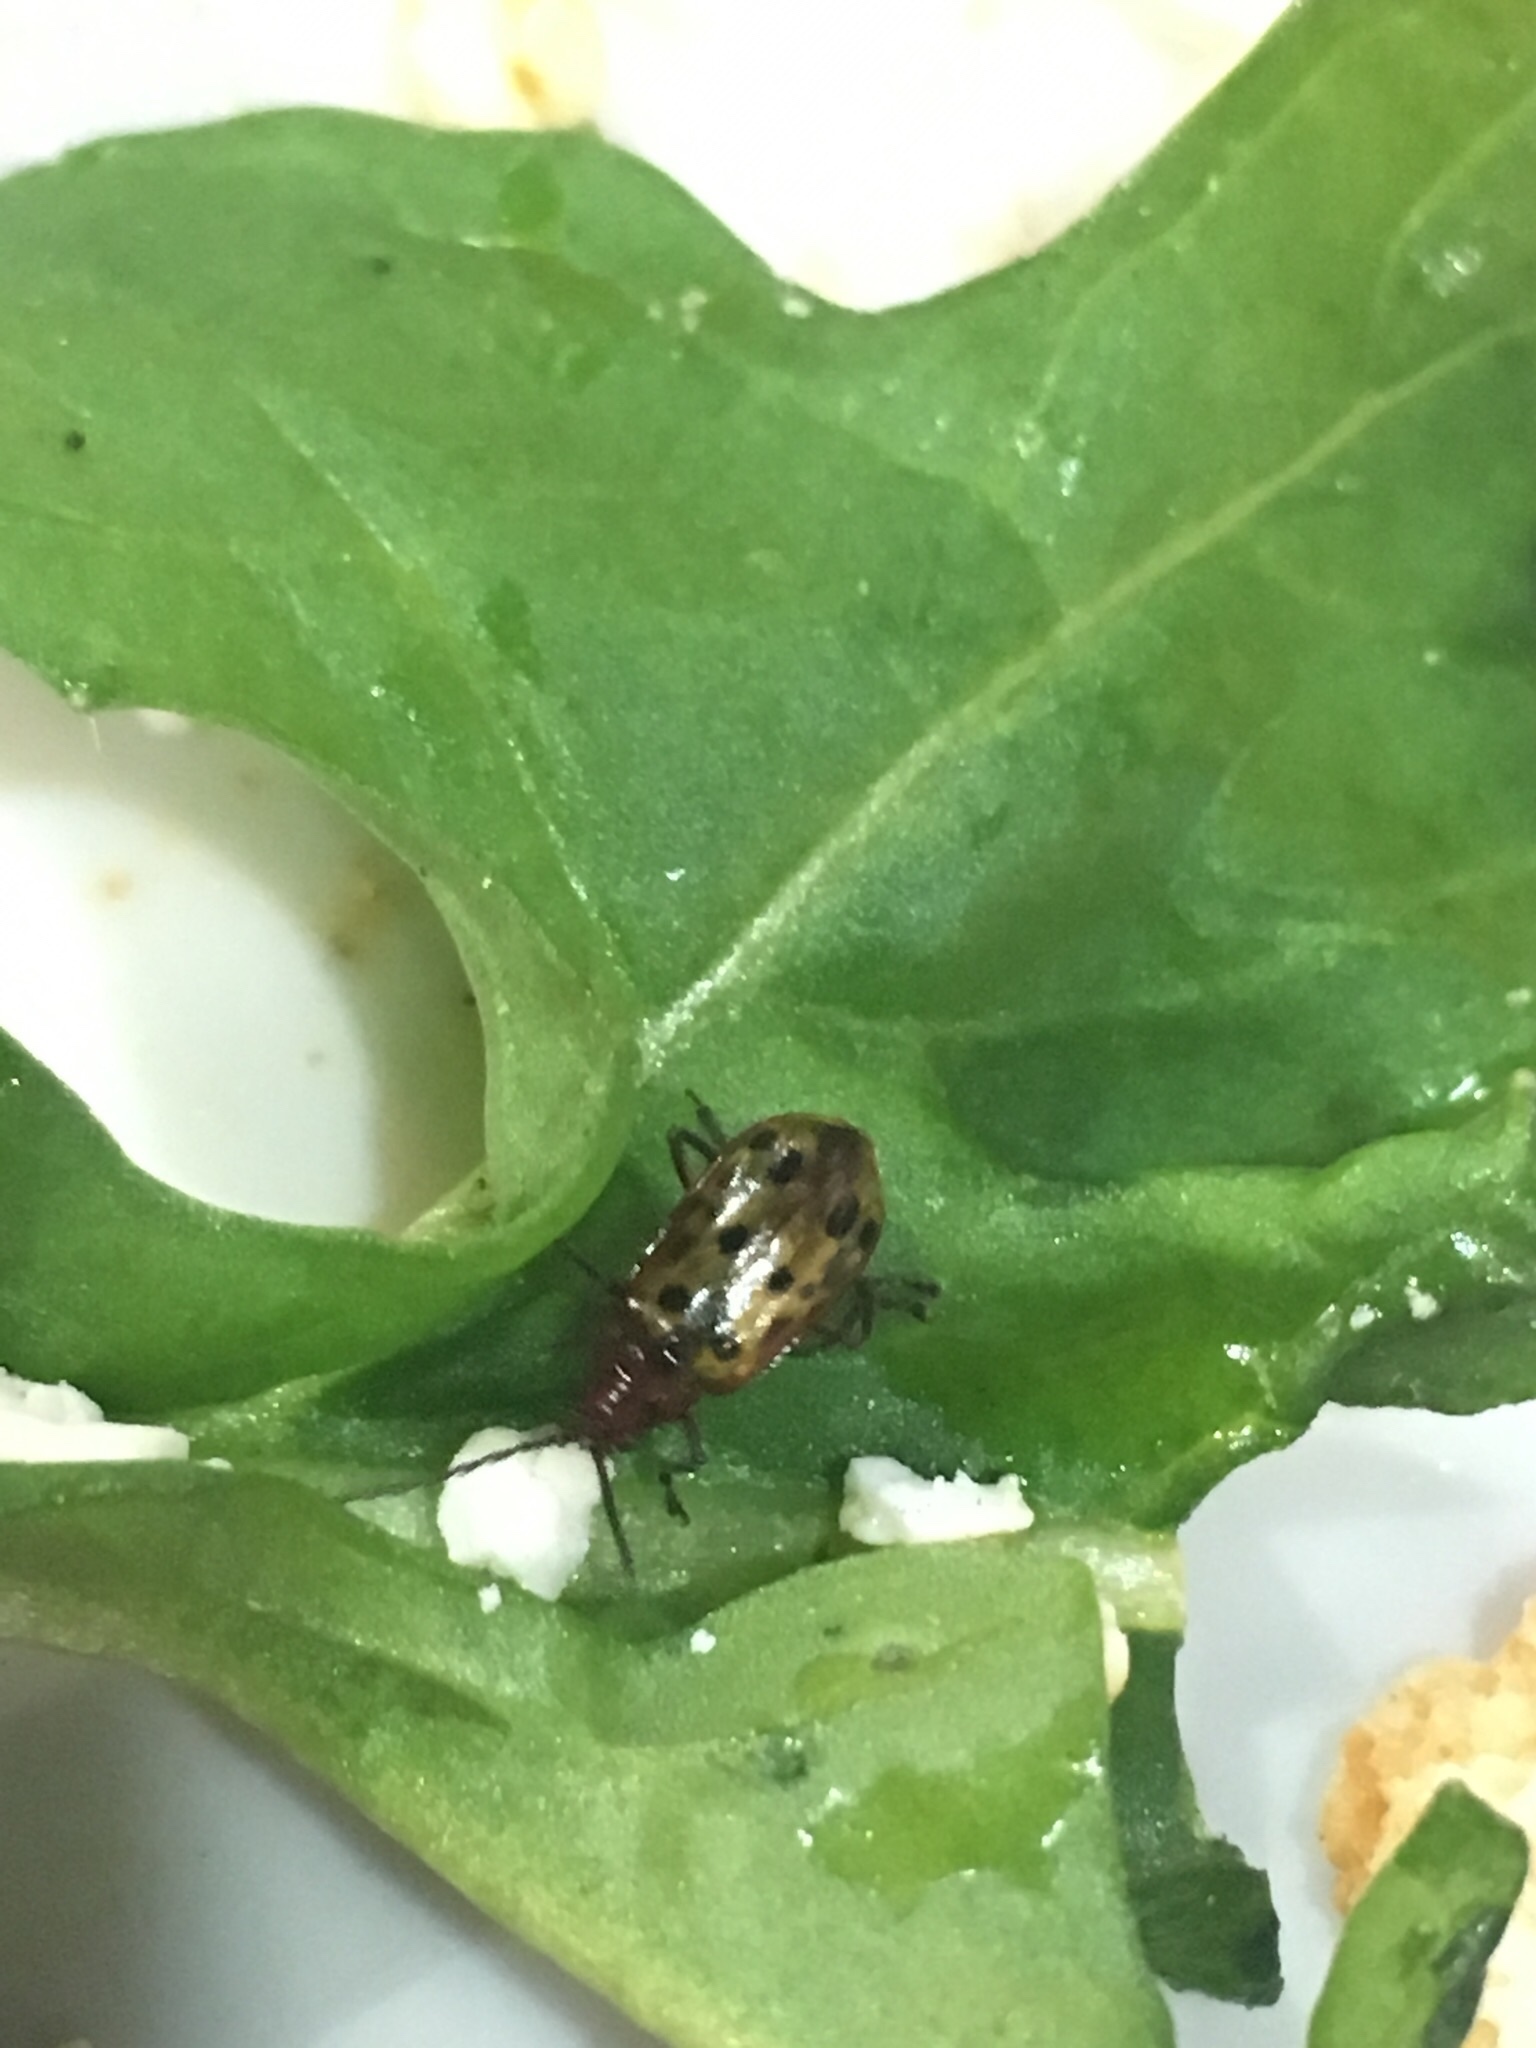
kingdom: Animalia
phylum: Arthropoda
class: Insecta
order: Coleoptera
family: Chrysomelidae
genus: Isotes
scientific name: Isotes
